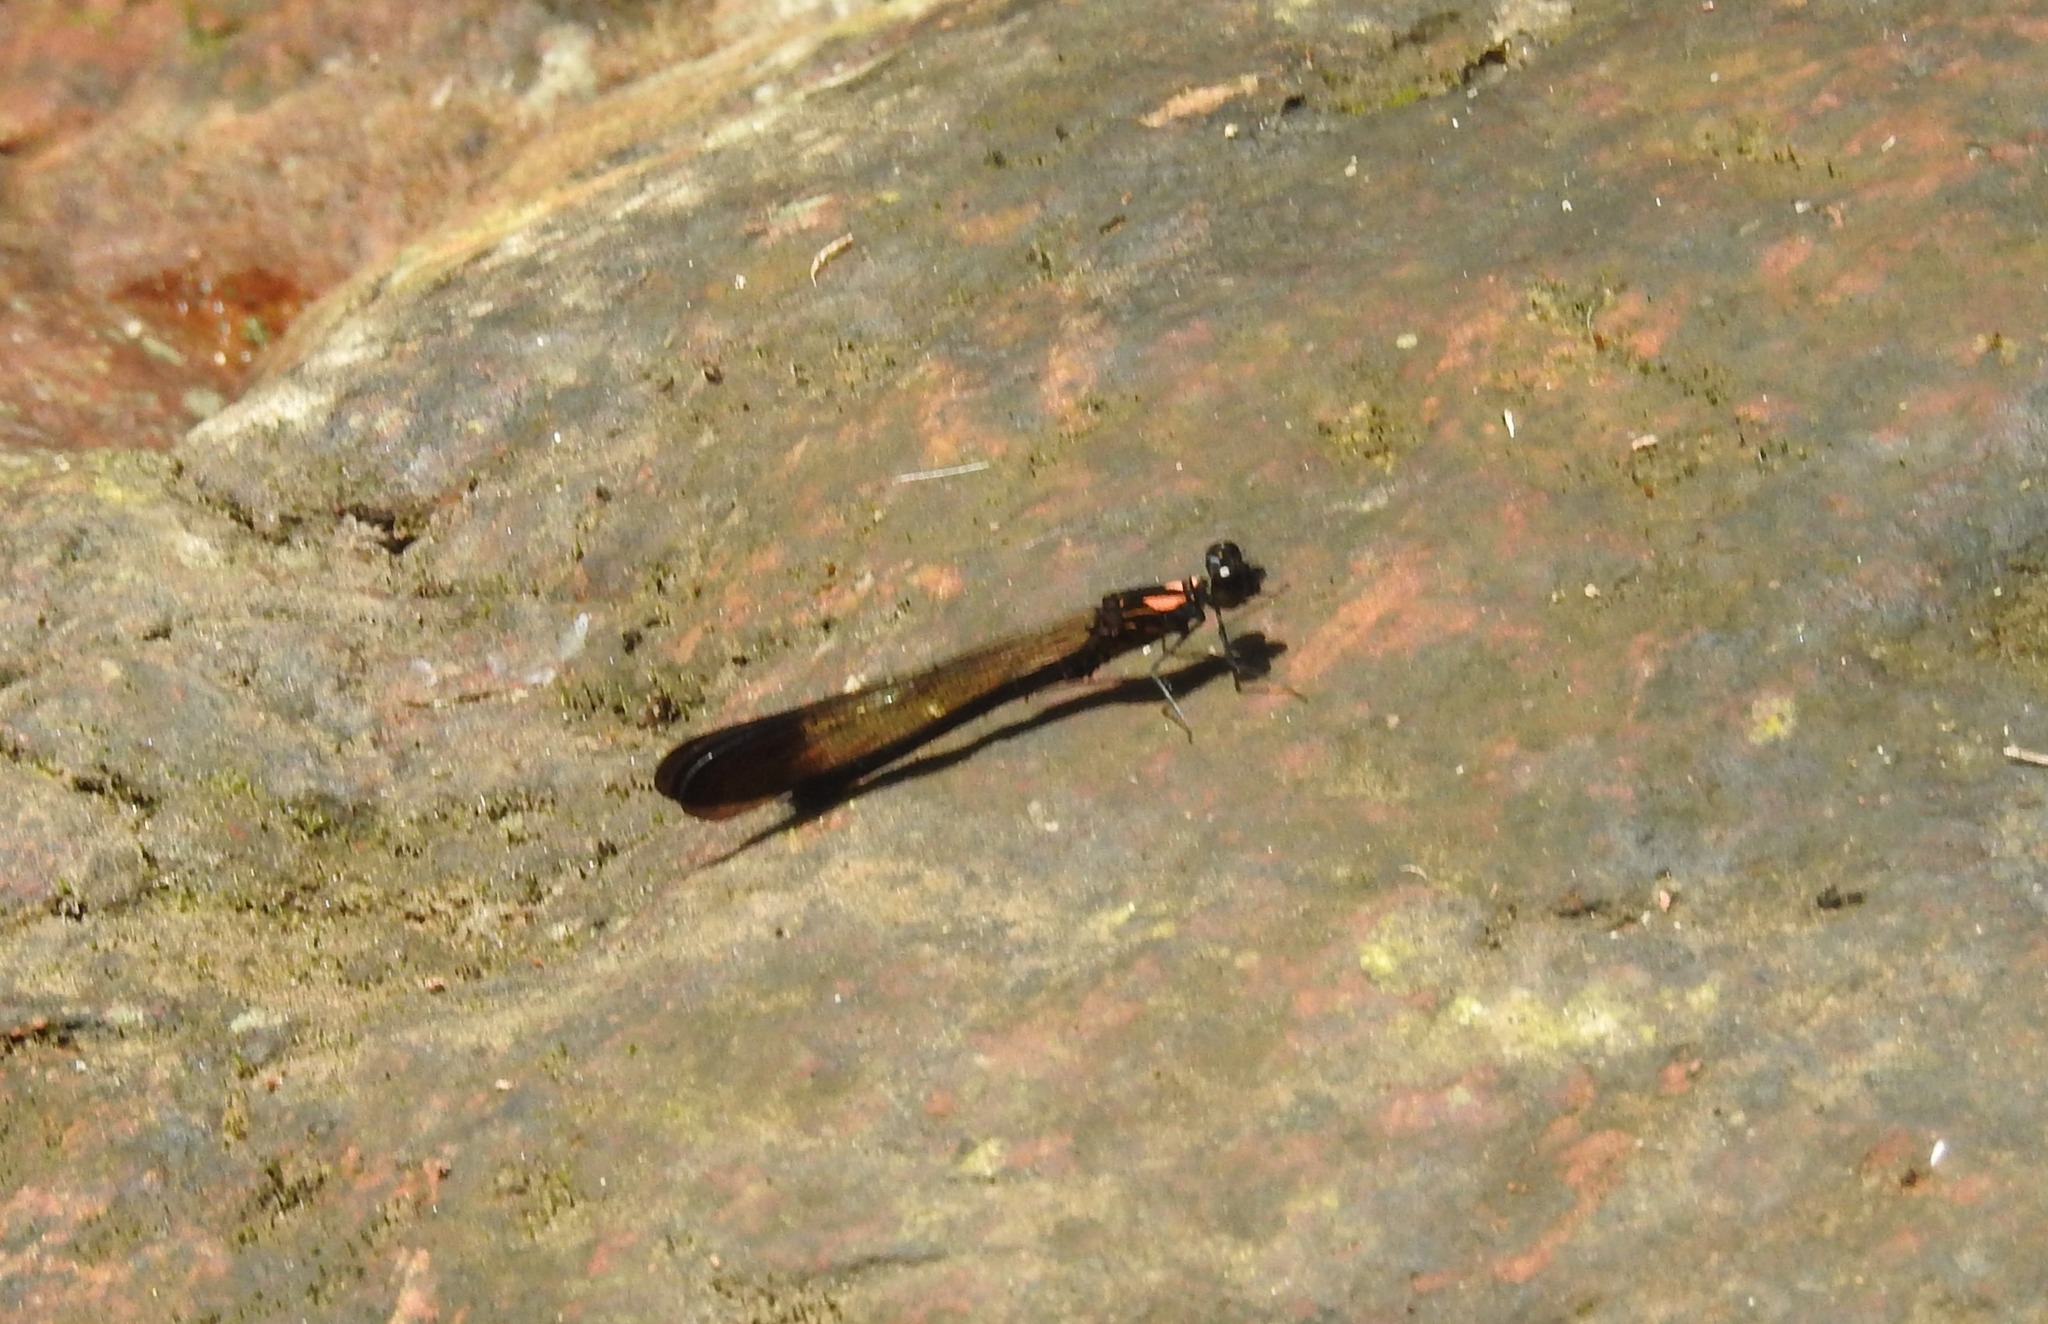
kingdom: Animalia
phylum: Arthropoda
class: Insecta
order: Odonata
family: Chlorocyphidae
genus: Heliocypha
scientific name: Heliocypha bisignata
